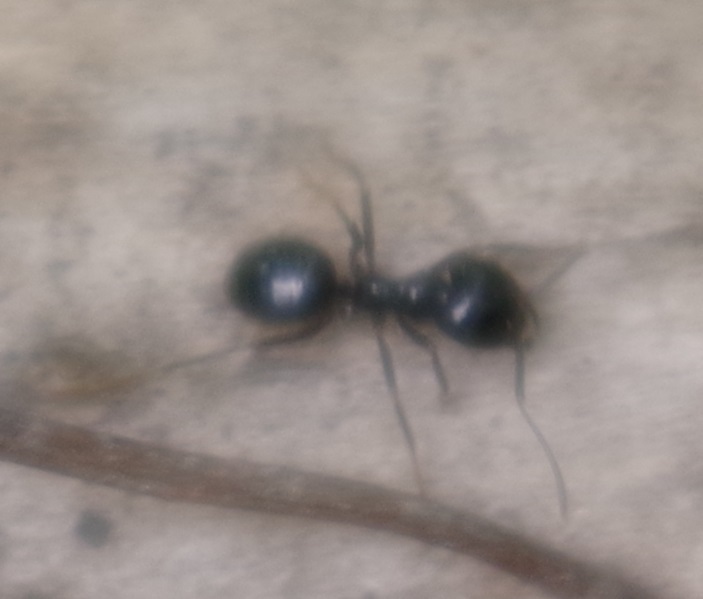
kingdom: Animalia
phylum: Arthropoda
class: Insecta
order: Hymenoptera
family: Formicidae
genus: Lasius
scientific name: Lasius fuliginosus
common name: Jet ant
